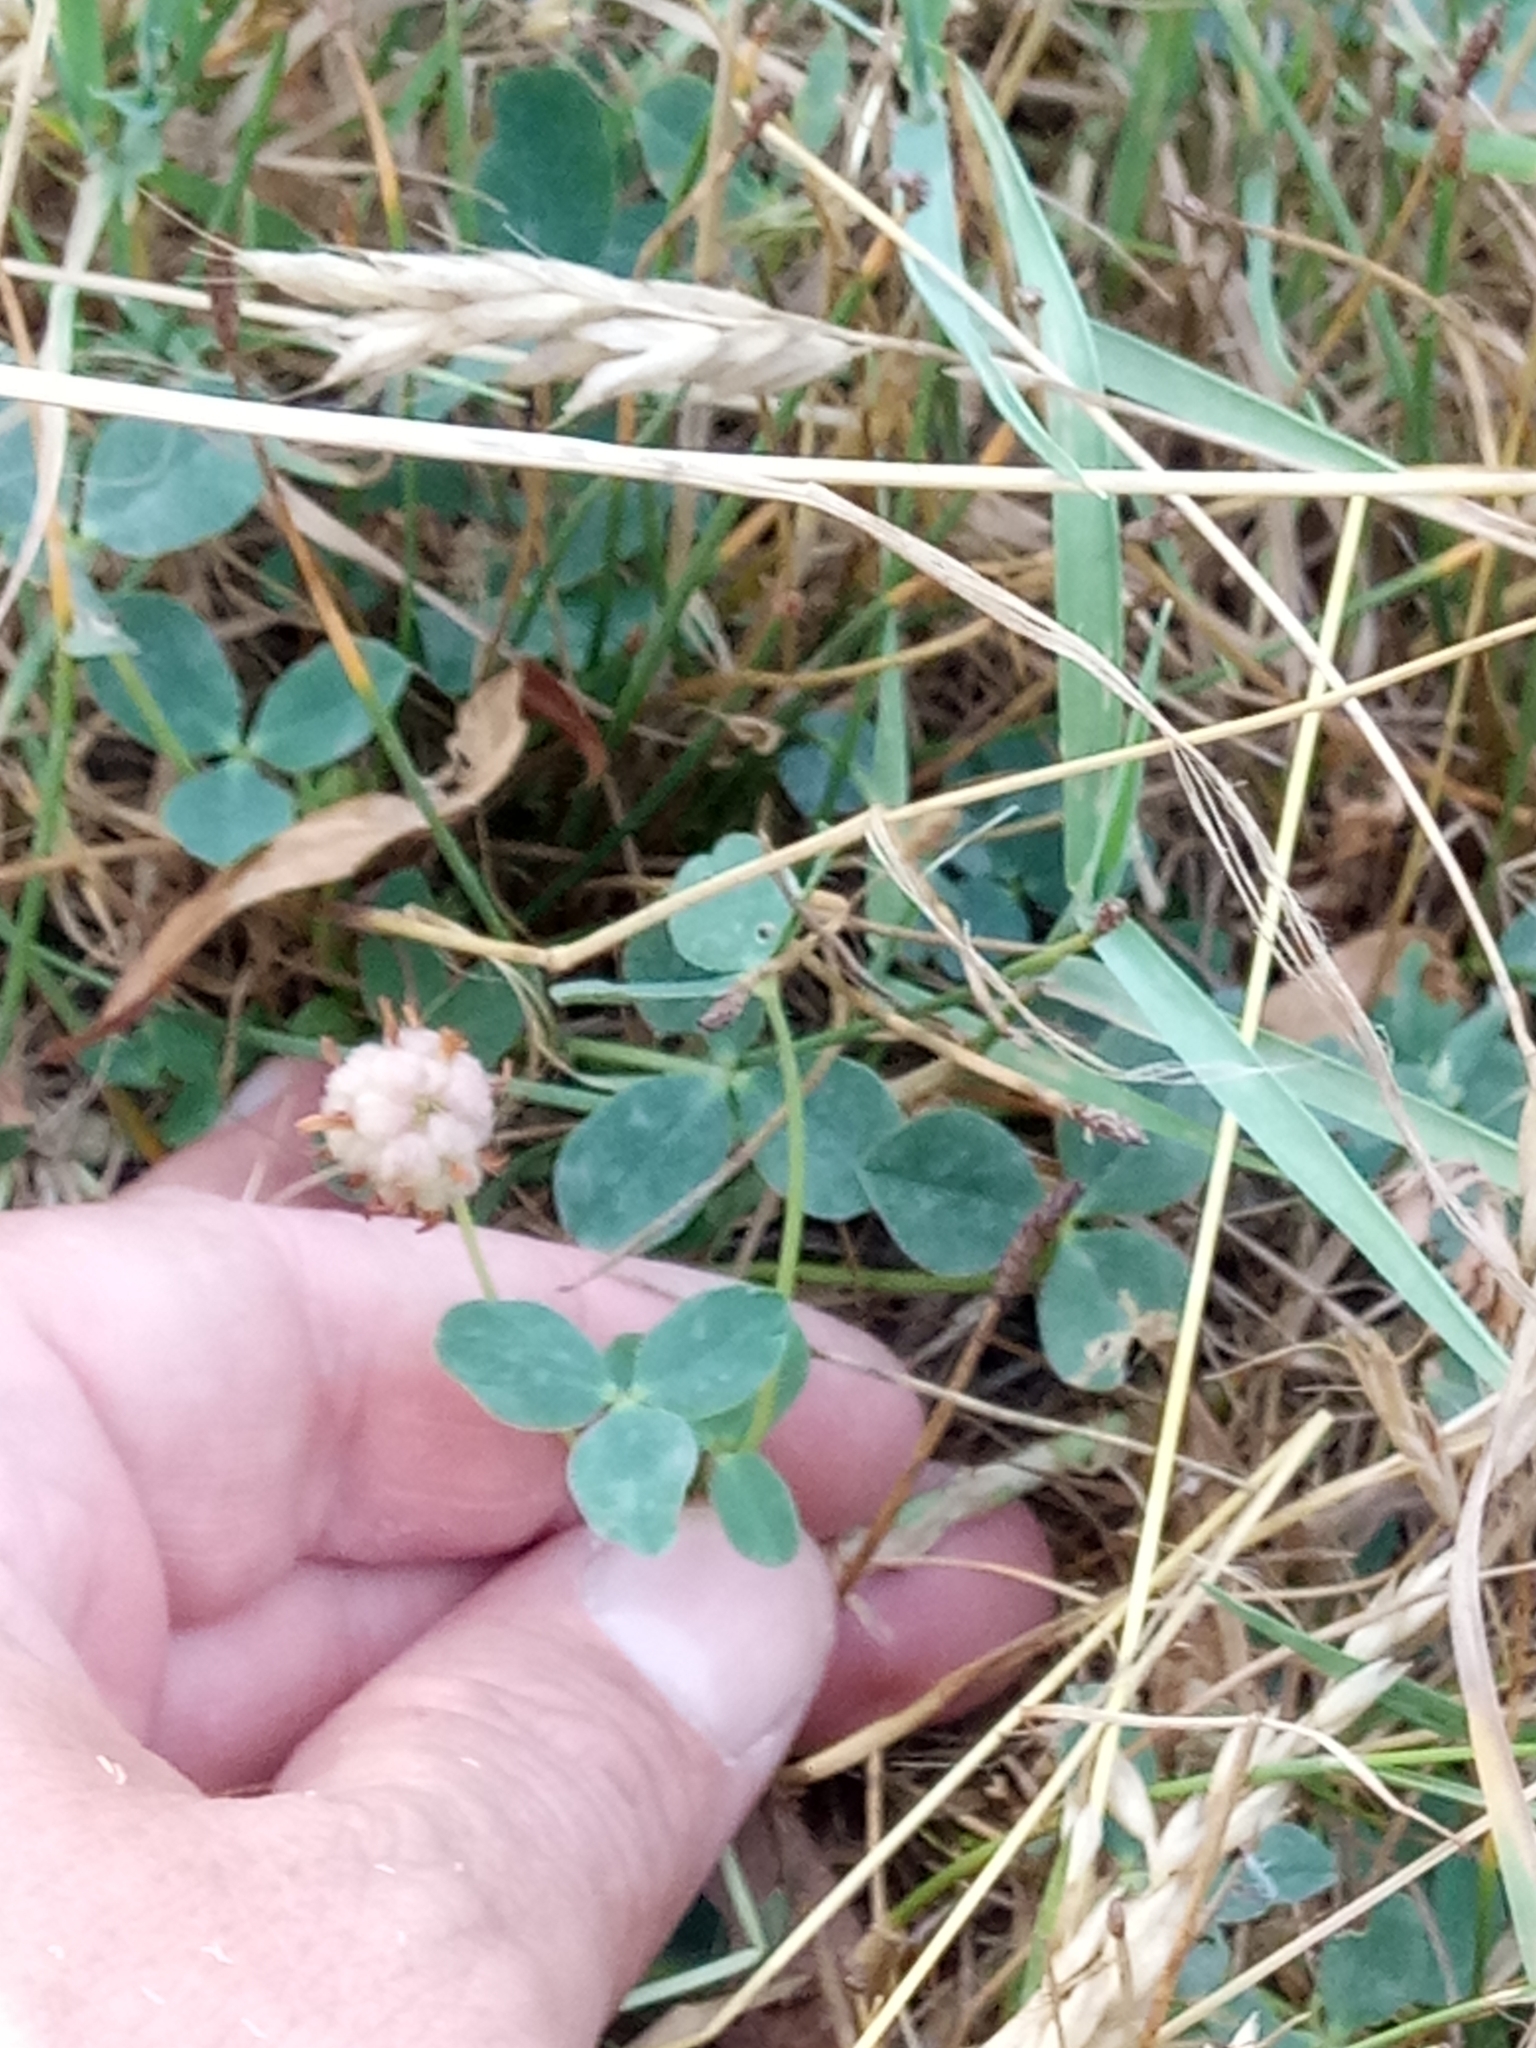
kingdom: Plantae
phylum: Tracheophyta
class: Magnoliopsida
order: Fabales
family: Fabaceae
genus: Trifolium
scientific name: Trifolium fragiferum
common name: Strawberry clover
